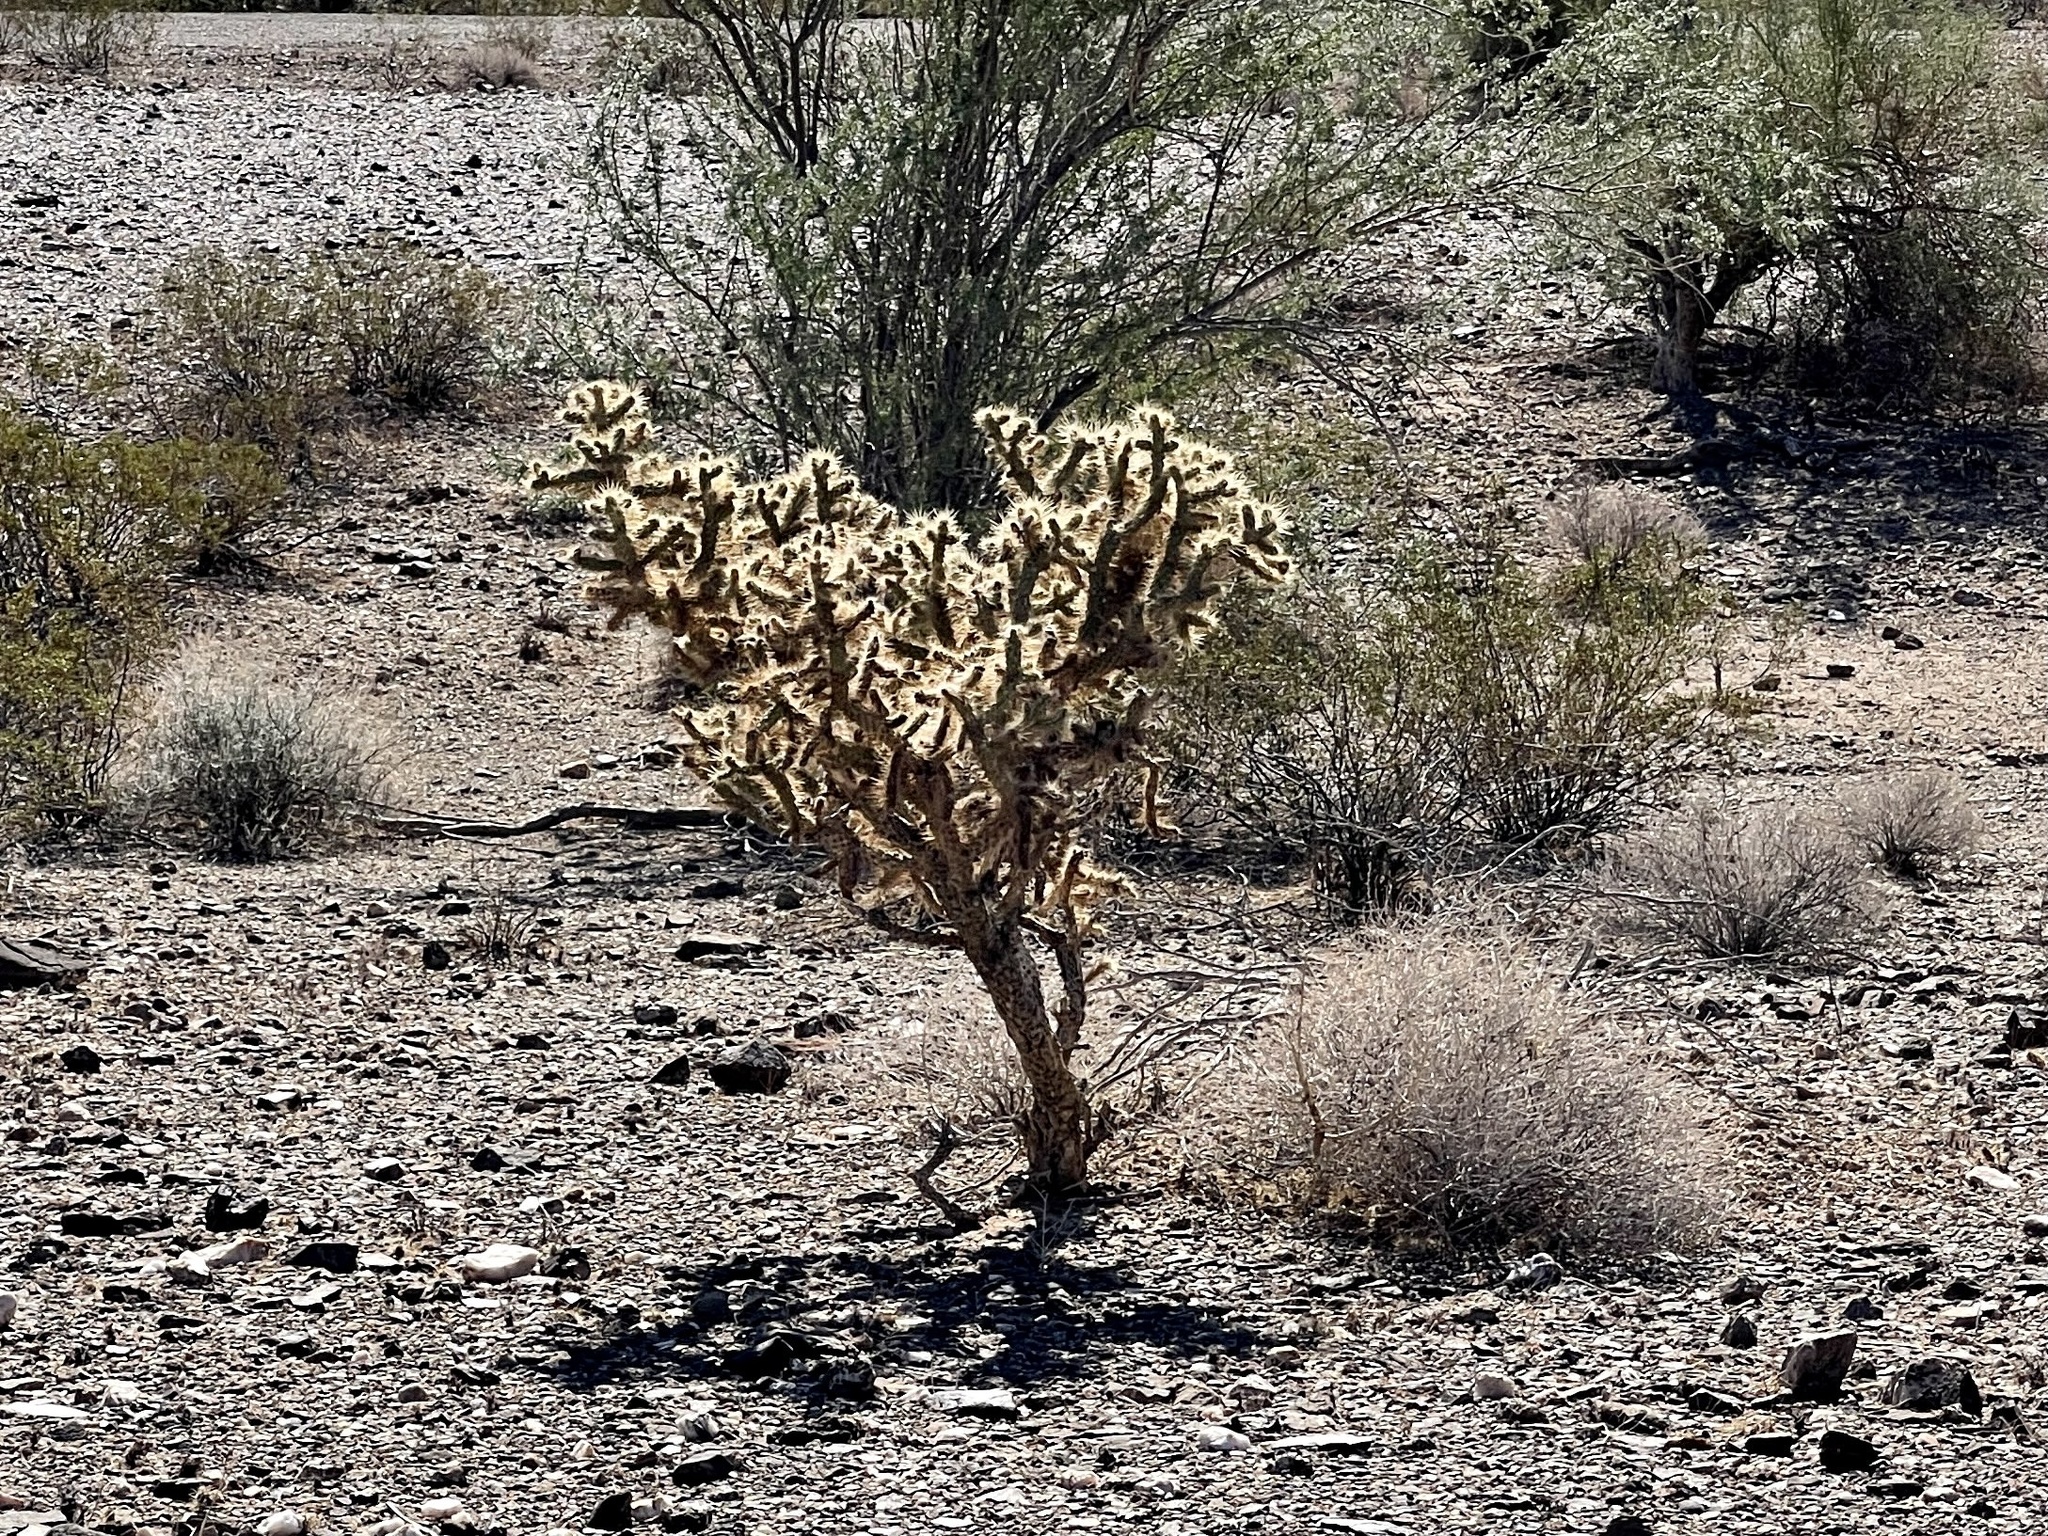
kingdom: Plantae
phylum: Tracheophyta
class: Magnoliopsida
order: Caryophyllales
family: Cactaceae
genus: Cylindropuntia
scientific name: Cylindropuntia acanthocarpa
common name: Buckhorn cholla
